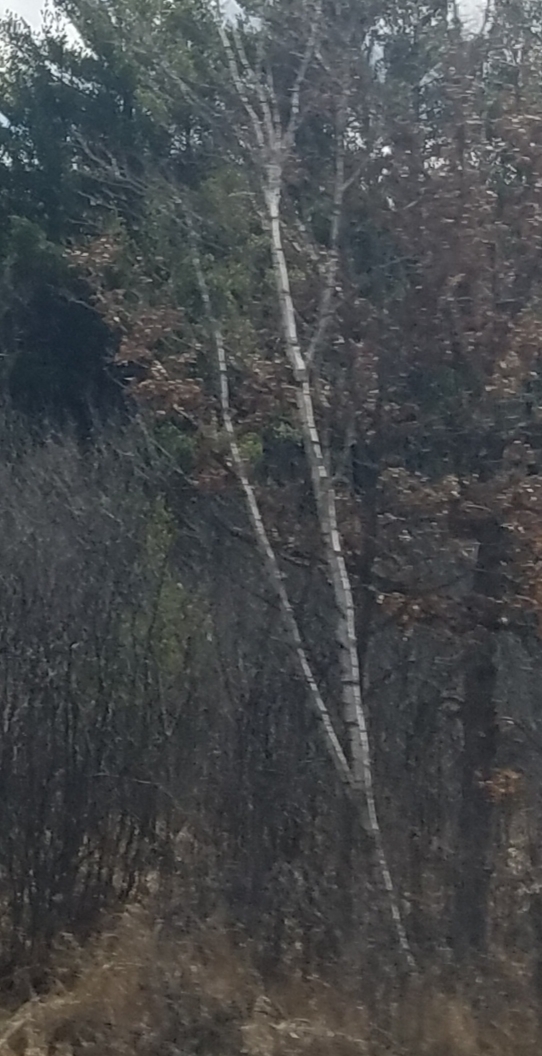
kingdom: Plantae
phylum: Tracheophyta
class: Magnoliopsida
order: Malpighiales
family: Salicaceae
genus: Populus
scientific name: Populus tremuloides
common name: Quaking aspen
